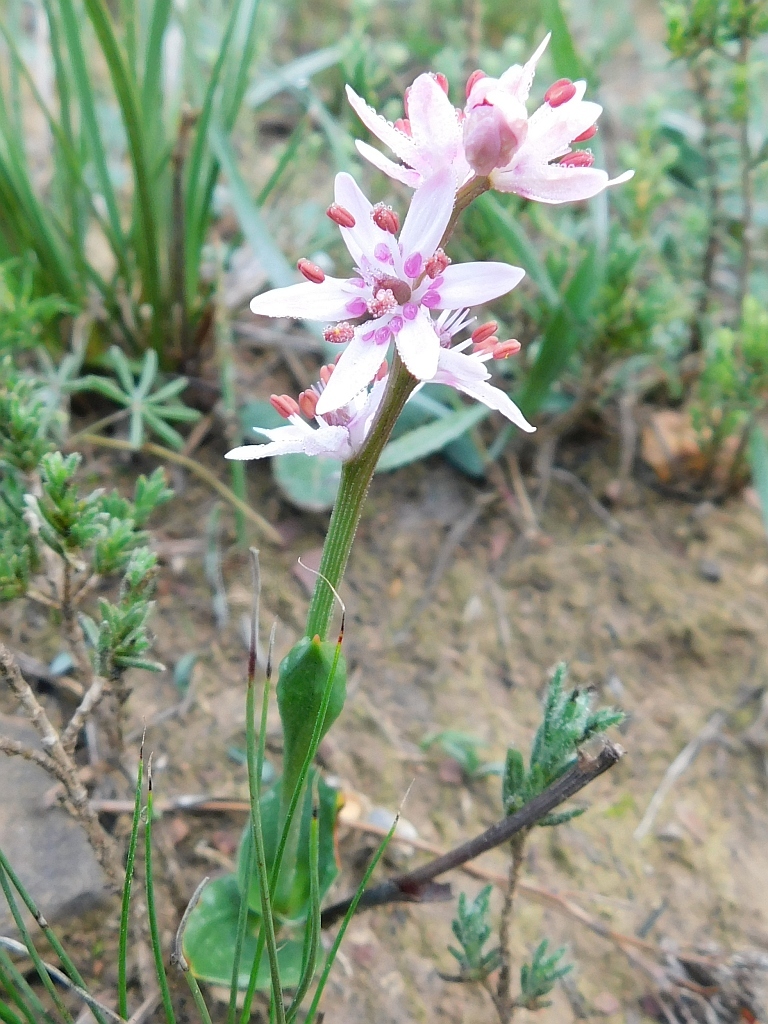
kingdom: Plantae
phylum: Tracheophyta
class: Liliopsida
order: Liliales
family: Colchicaceae
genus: Wurmbea
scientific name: Wurmbea punctata
